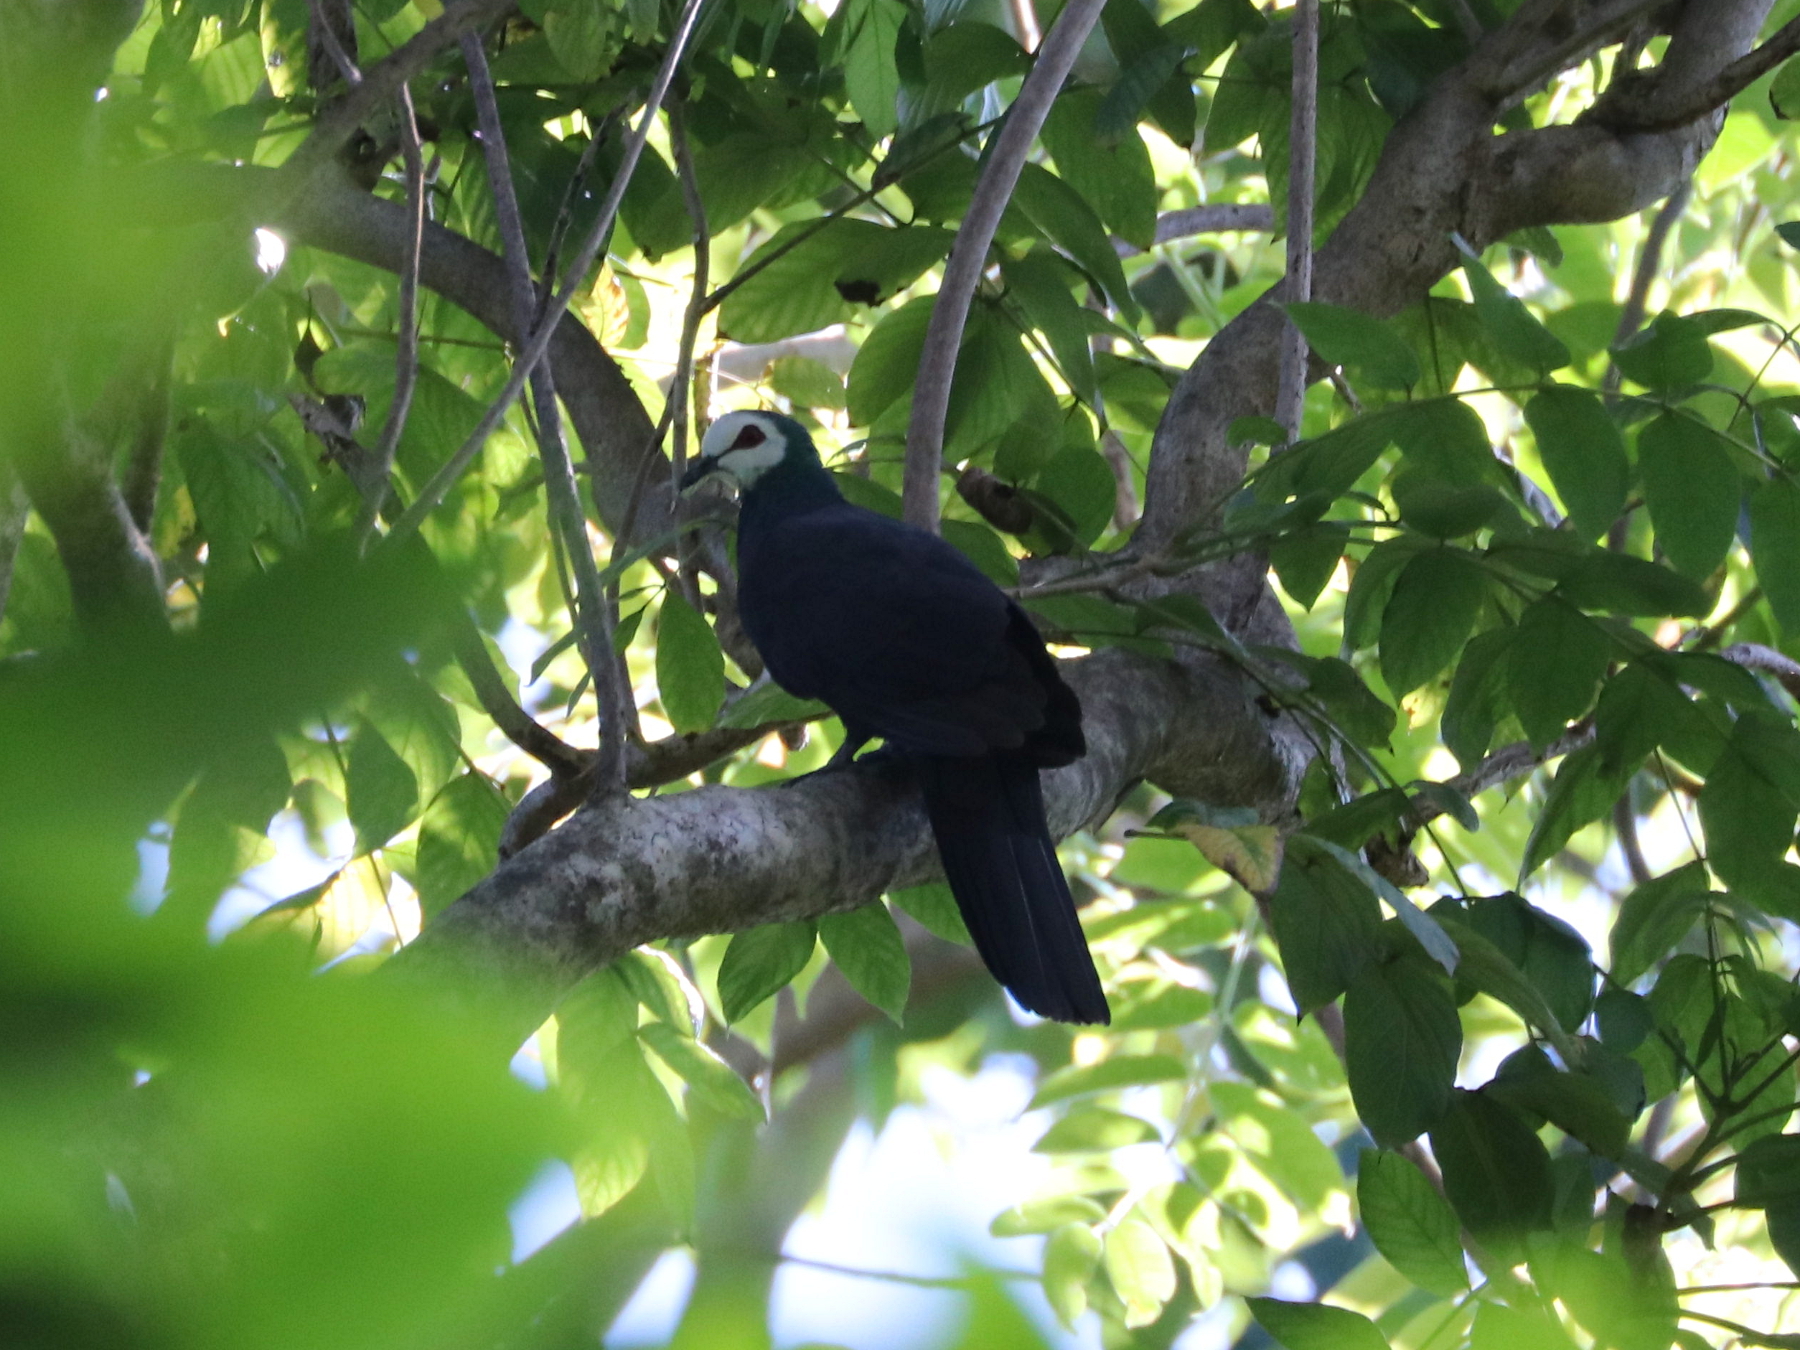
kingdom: Animalia
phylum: Chordata
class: Aves
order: Columbiformes
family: Columbidae
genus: Turacoena
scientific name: Turacoena manadensis
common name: White-faced cuckoo-dove
